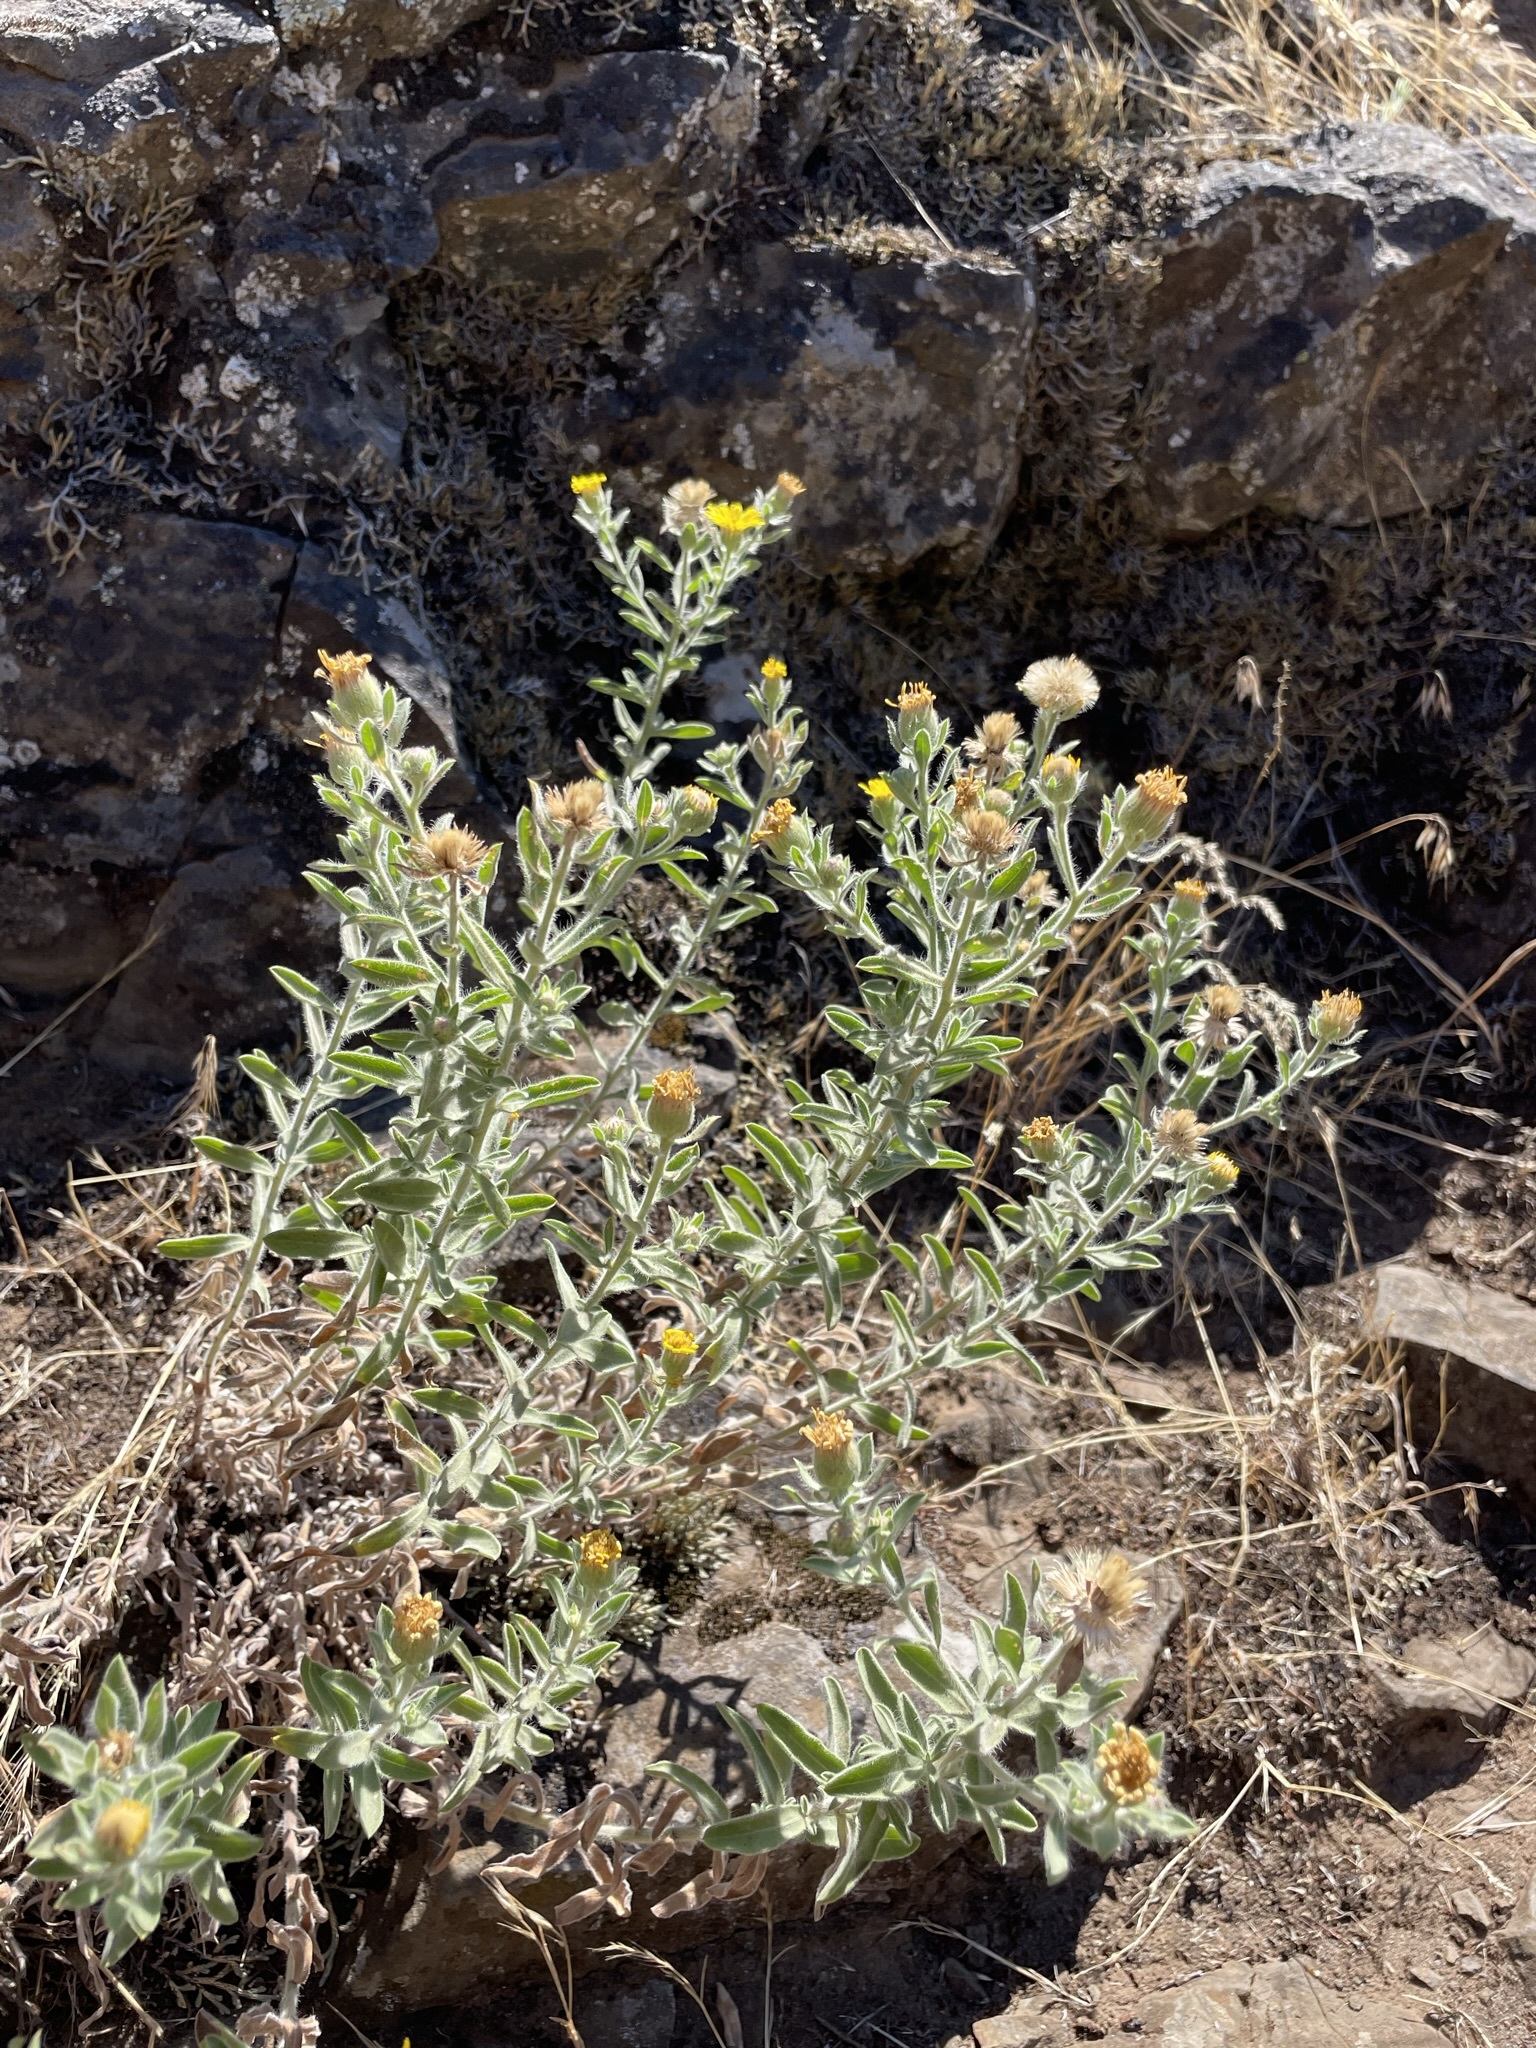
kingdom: Plantae
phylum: Tracheophyta
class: Magnoliopsida
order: Asterales
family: Asteraceae
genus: Heterotheca
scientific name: Heterotheca villosa
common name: Hairy false goldenaster
